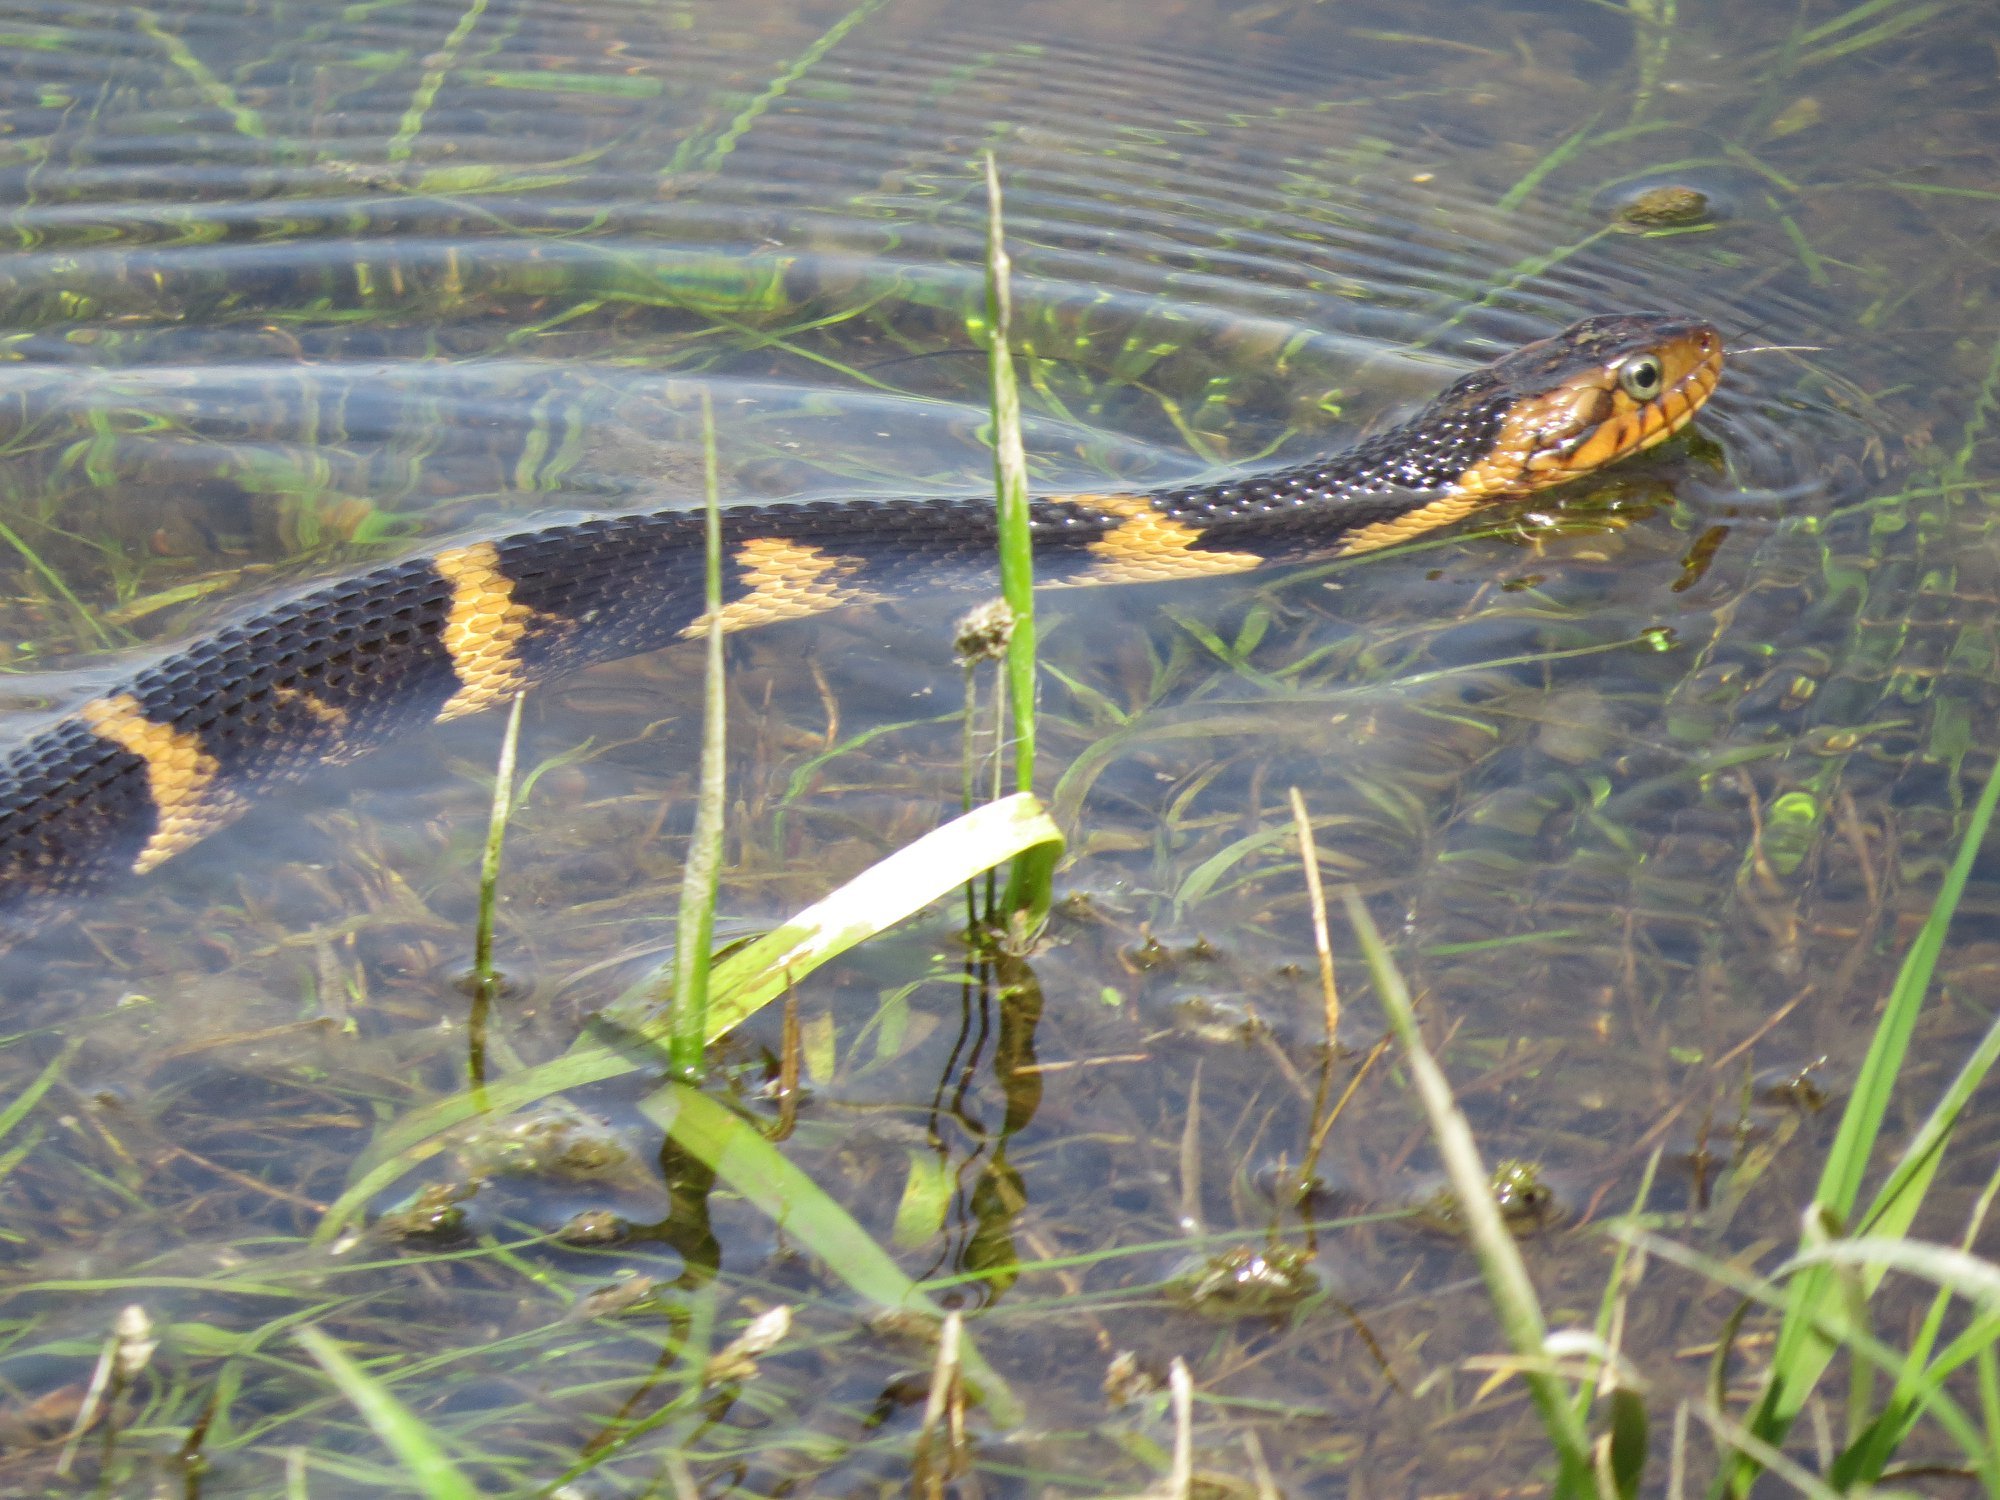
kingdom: Animalia
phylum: Chordata
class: Squamata
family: Colubridae
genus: Nerodia
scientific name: Nerodia fasciata
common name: Southern water snake
